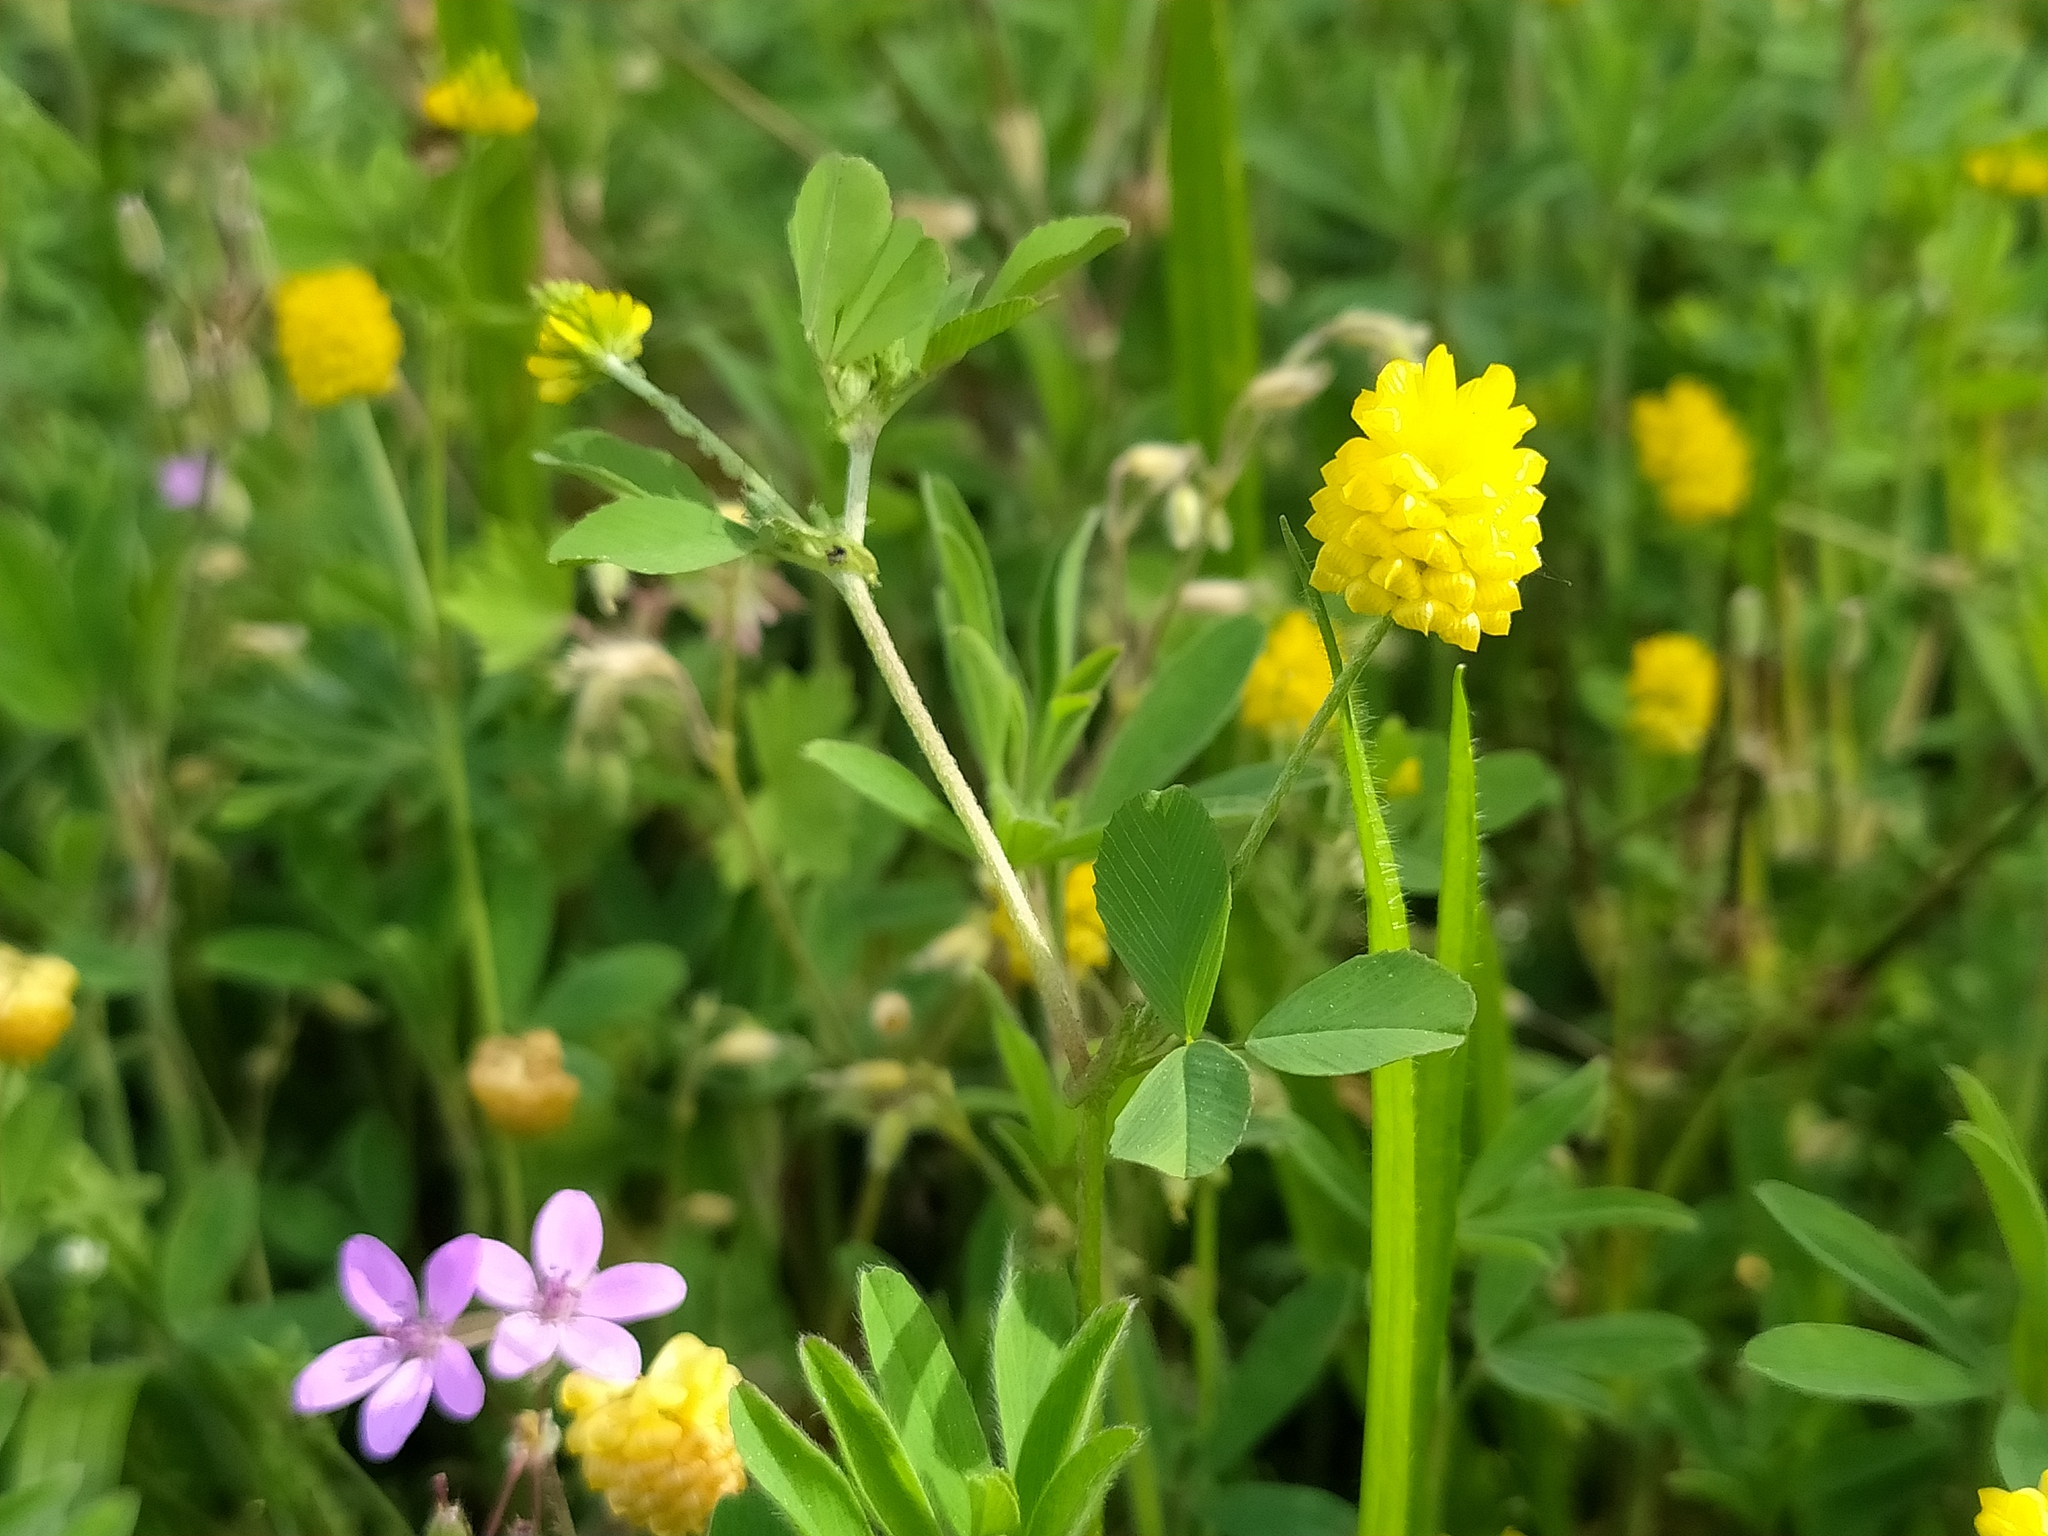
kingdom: Plantae
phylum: Tracheophyta
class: Magnoliopsida
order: Fabales
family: Fabaceae
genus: Trifolium
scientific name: Trifolium campestre
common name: Field clover
